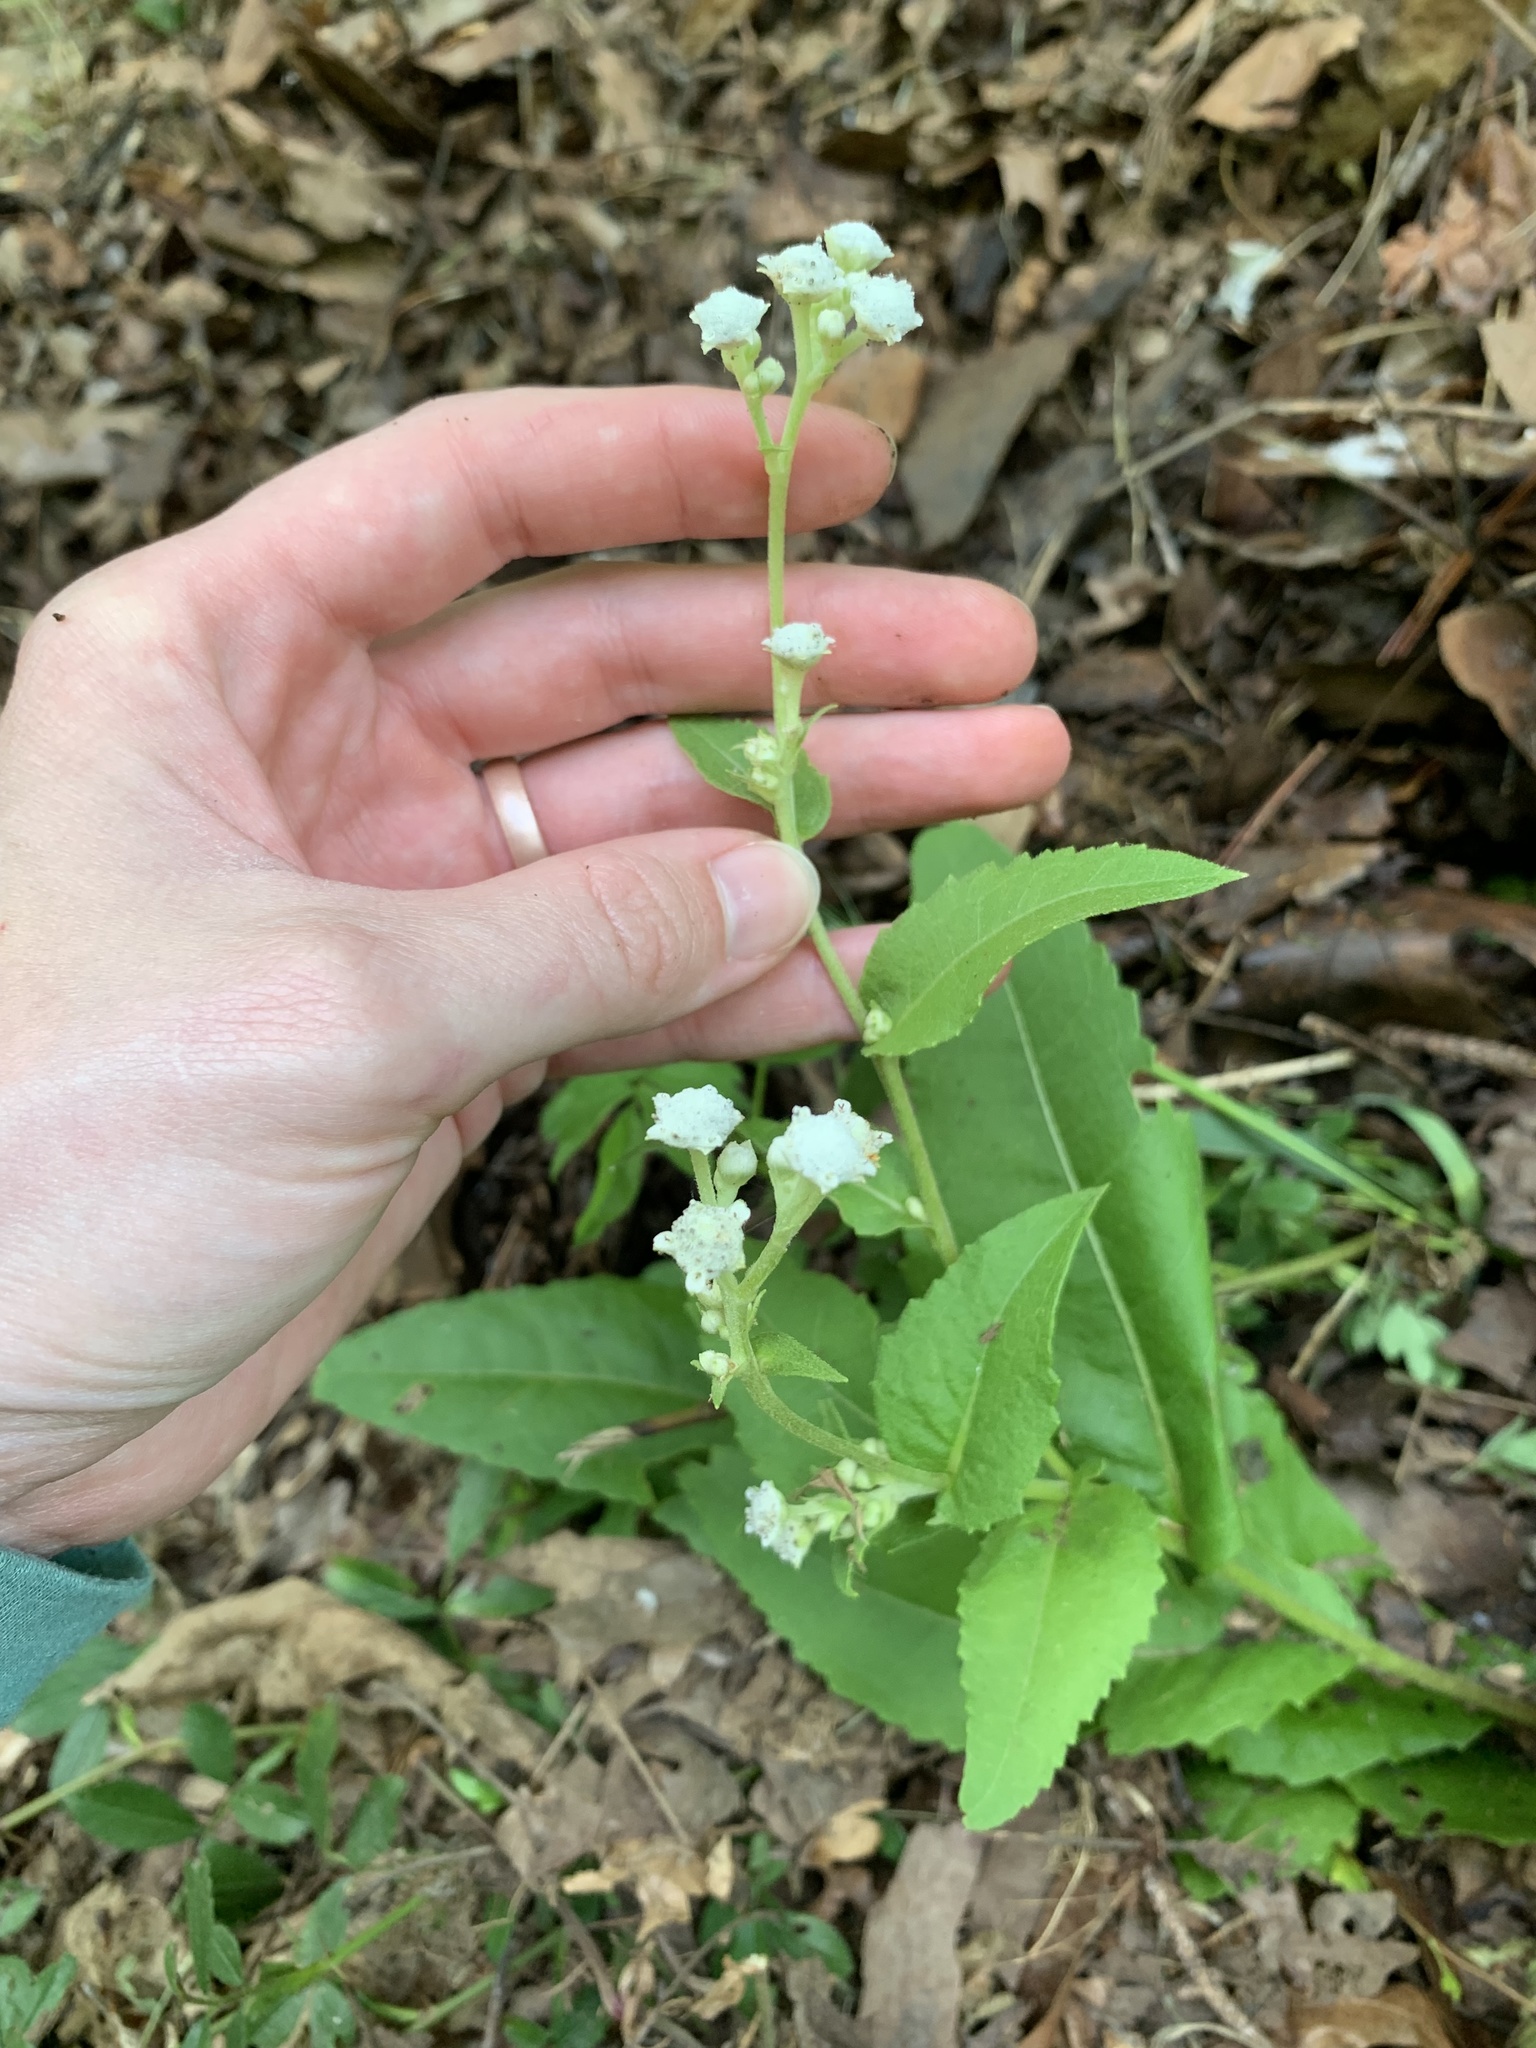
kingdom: Plantae
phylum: Tracheophyta
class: Magnoliopsida
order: Asterales
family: Asteraceae
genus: Parthenium
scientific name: Parthenium integrifolium
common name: American feverfew
